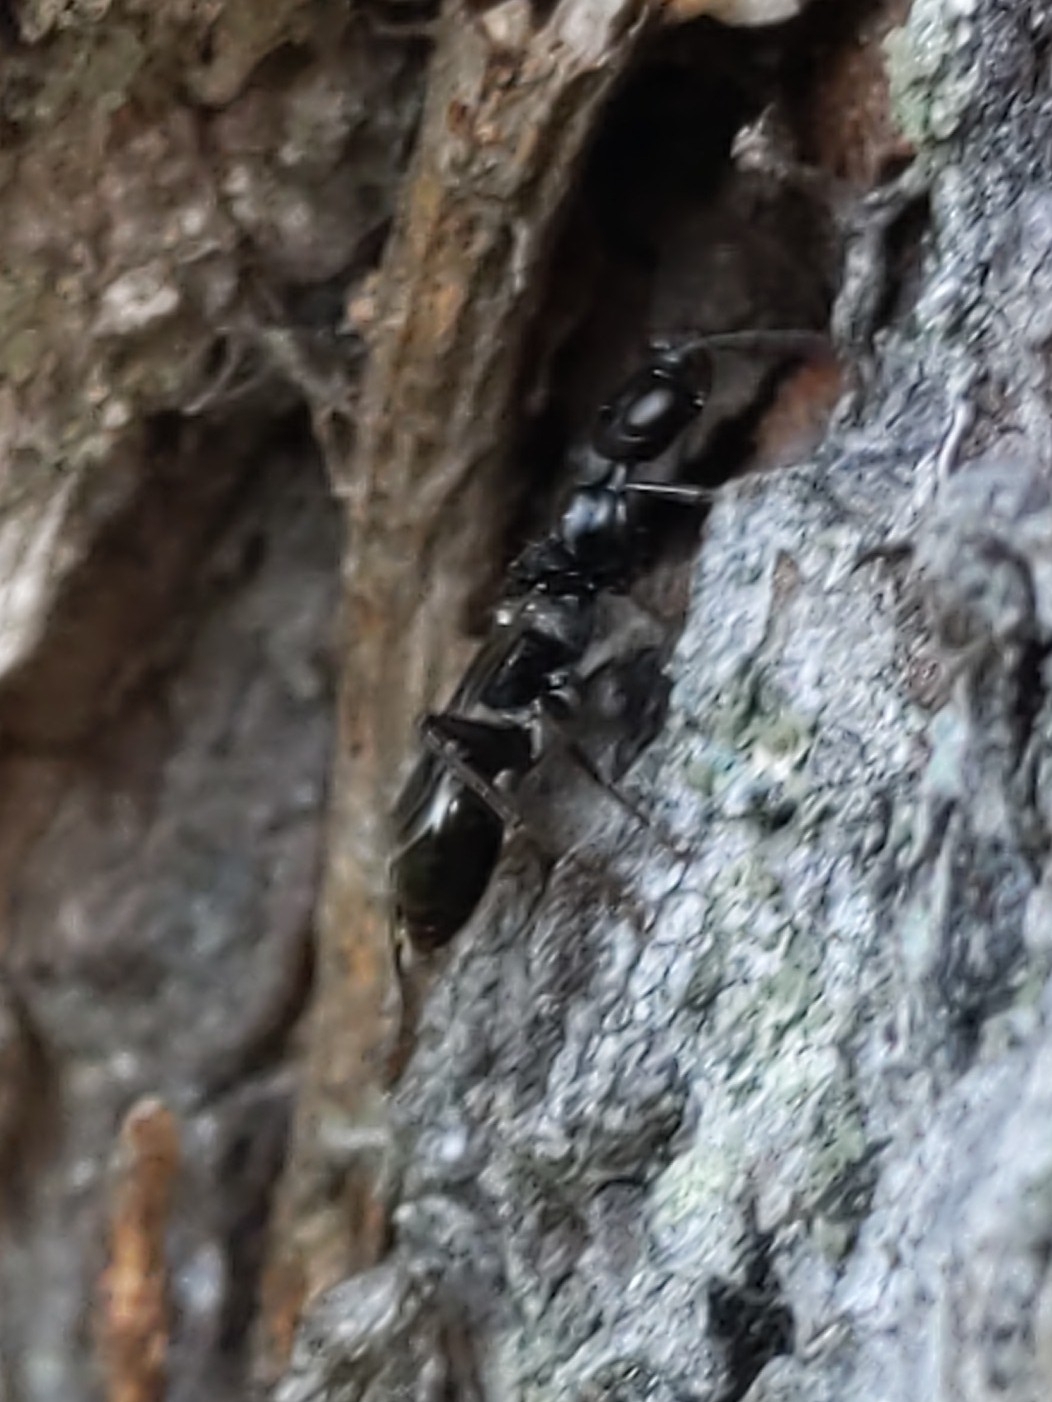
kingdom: Animalia
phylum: Arthropoda
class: Insecta
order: Hymenoptera
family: Ampulicidae
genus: Ampulex
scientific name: Ampulex canaliculata
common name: Cockroach wasp
